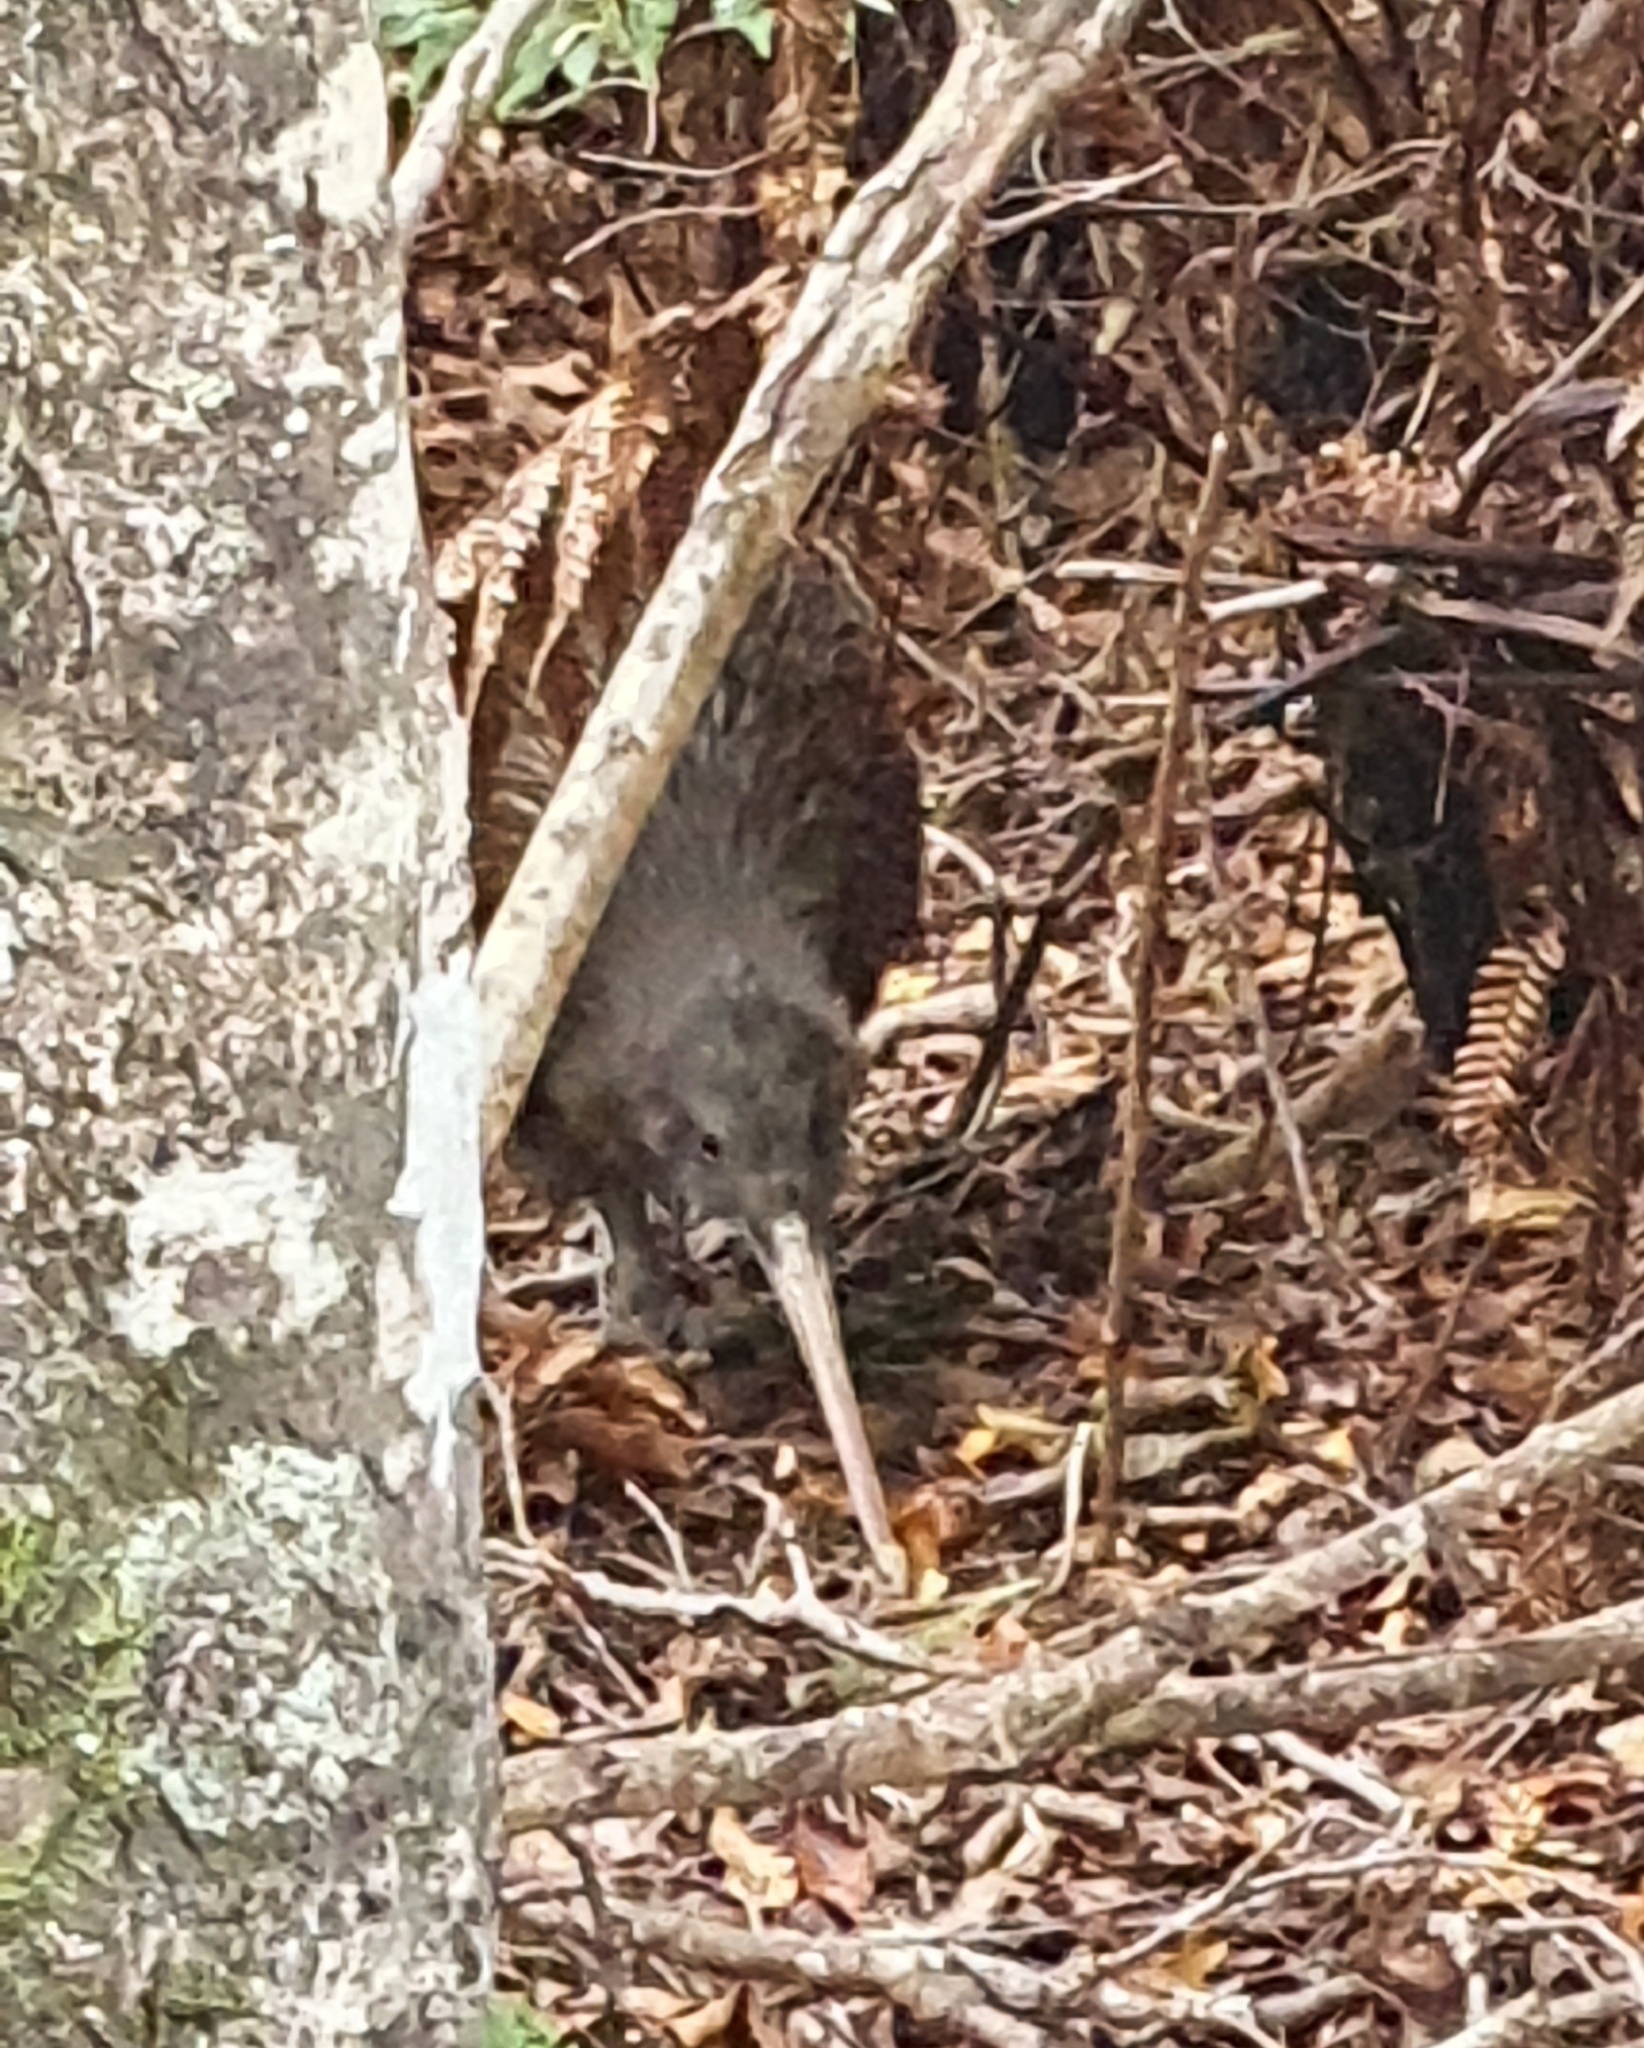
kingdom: Animalia
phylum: Chordata
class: Aves
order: Apterygiformes
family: Apterygidae
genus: Apteryx
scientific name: Apteryx australis
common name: Southern brown kiwi
